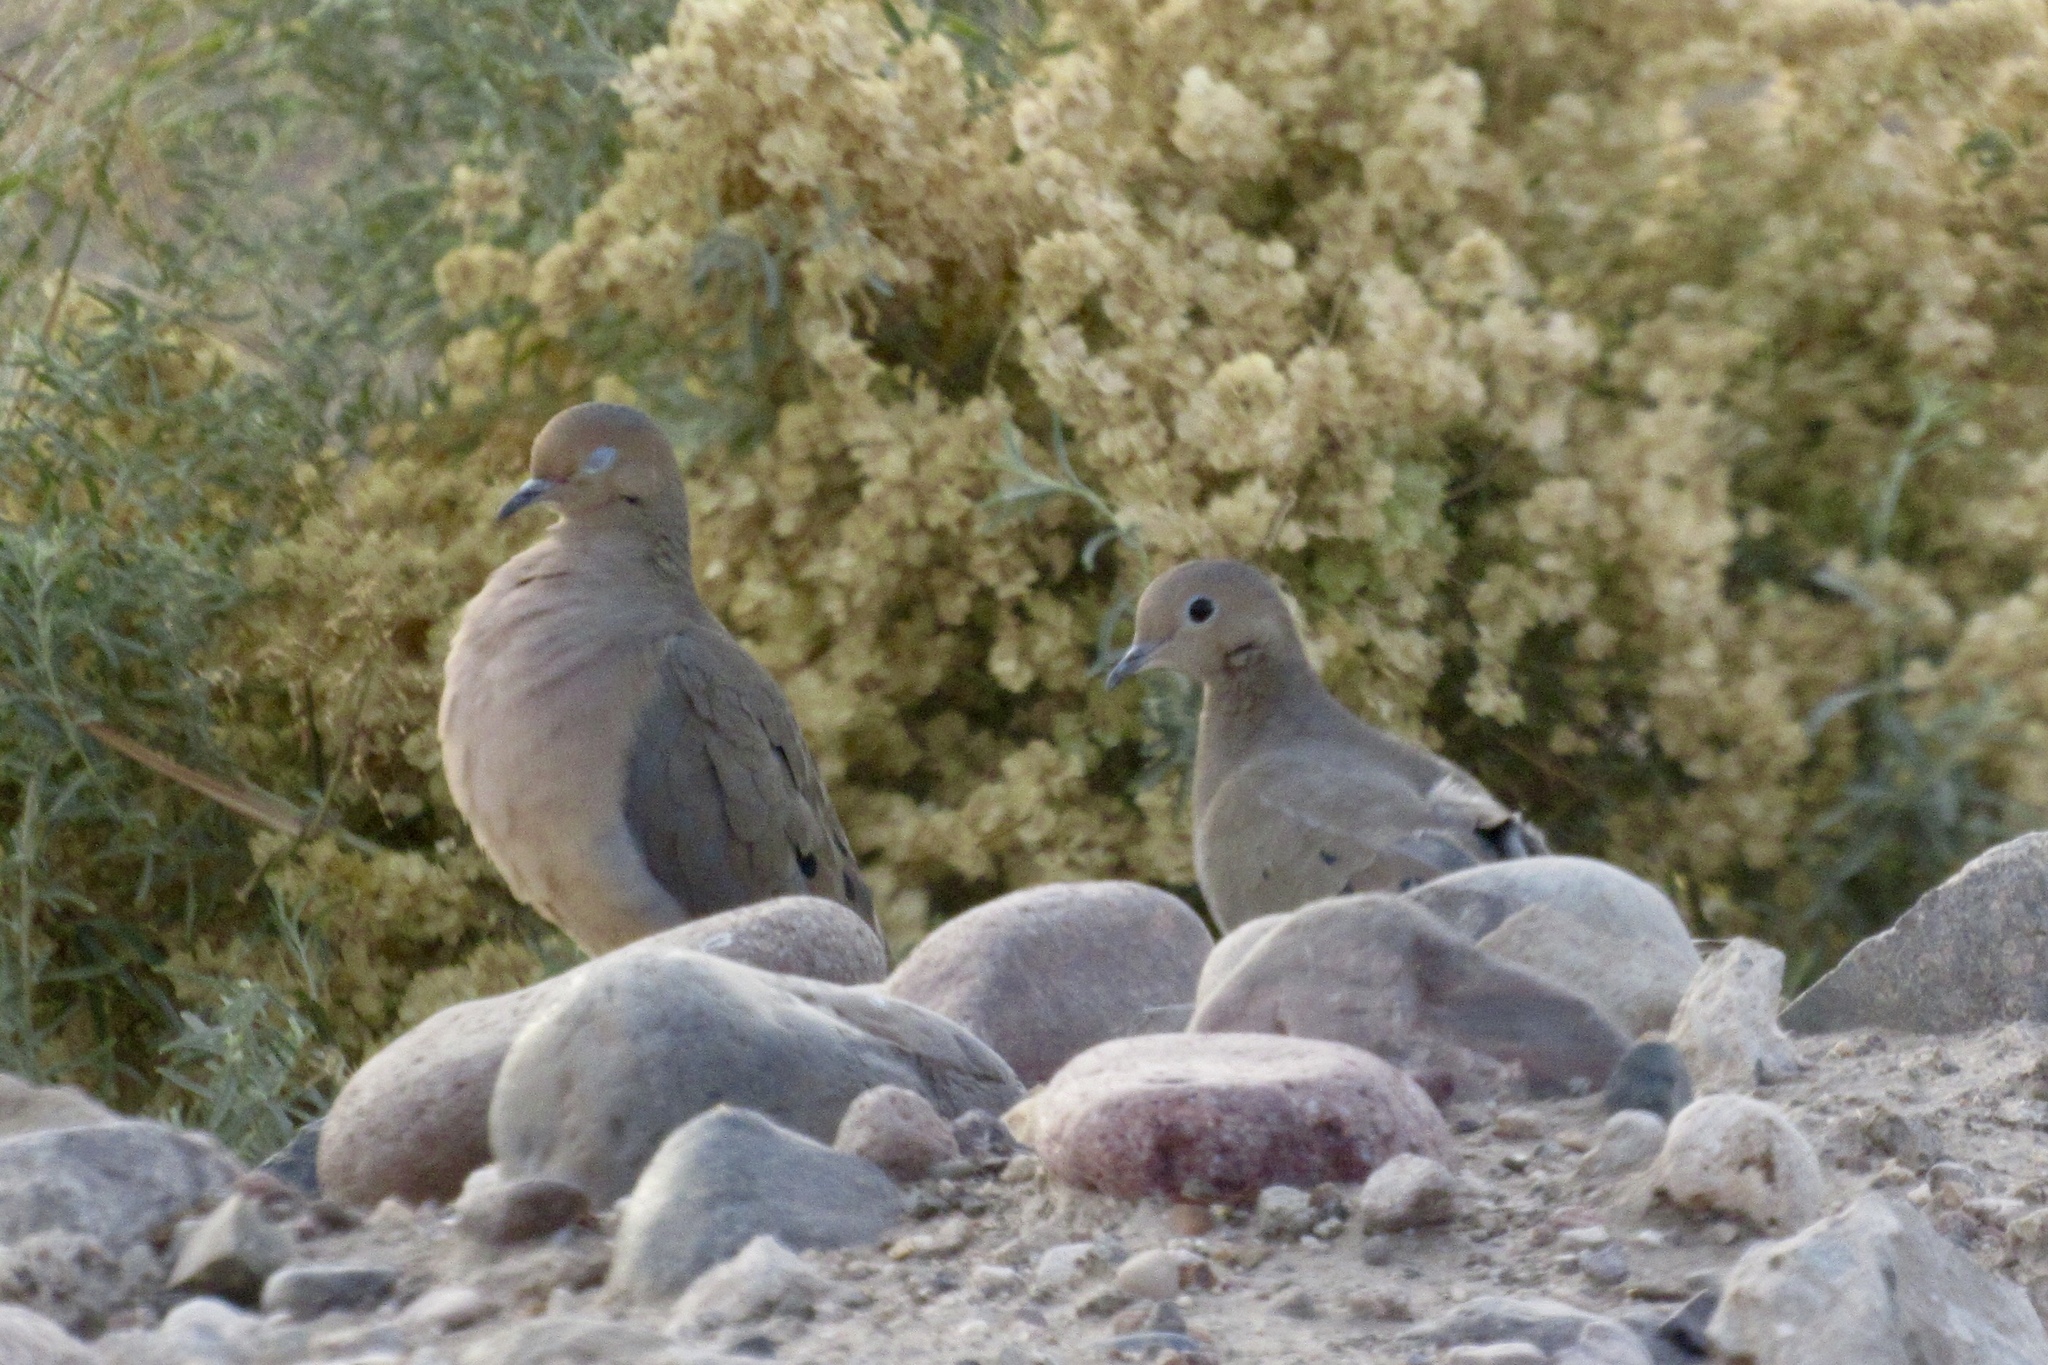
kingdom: Animalia
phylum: Chordata
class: Aves
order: Columbiformes
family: Columbidae
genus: Zenaida
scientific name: Zenaida macroura
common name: Mourning dove
